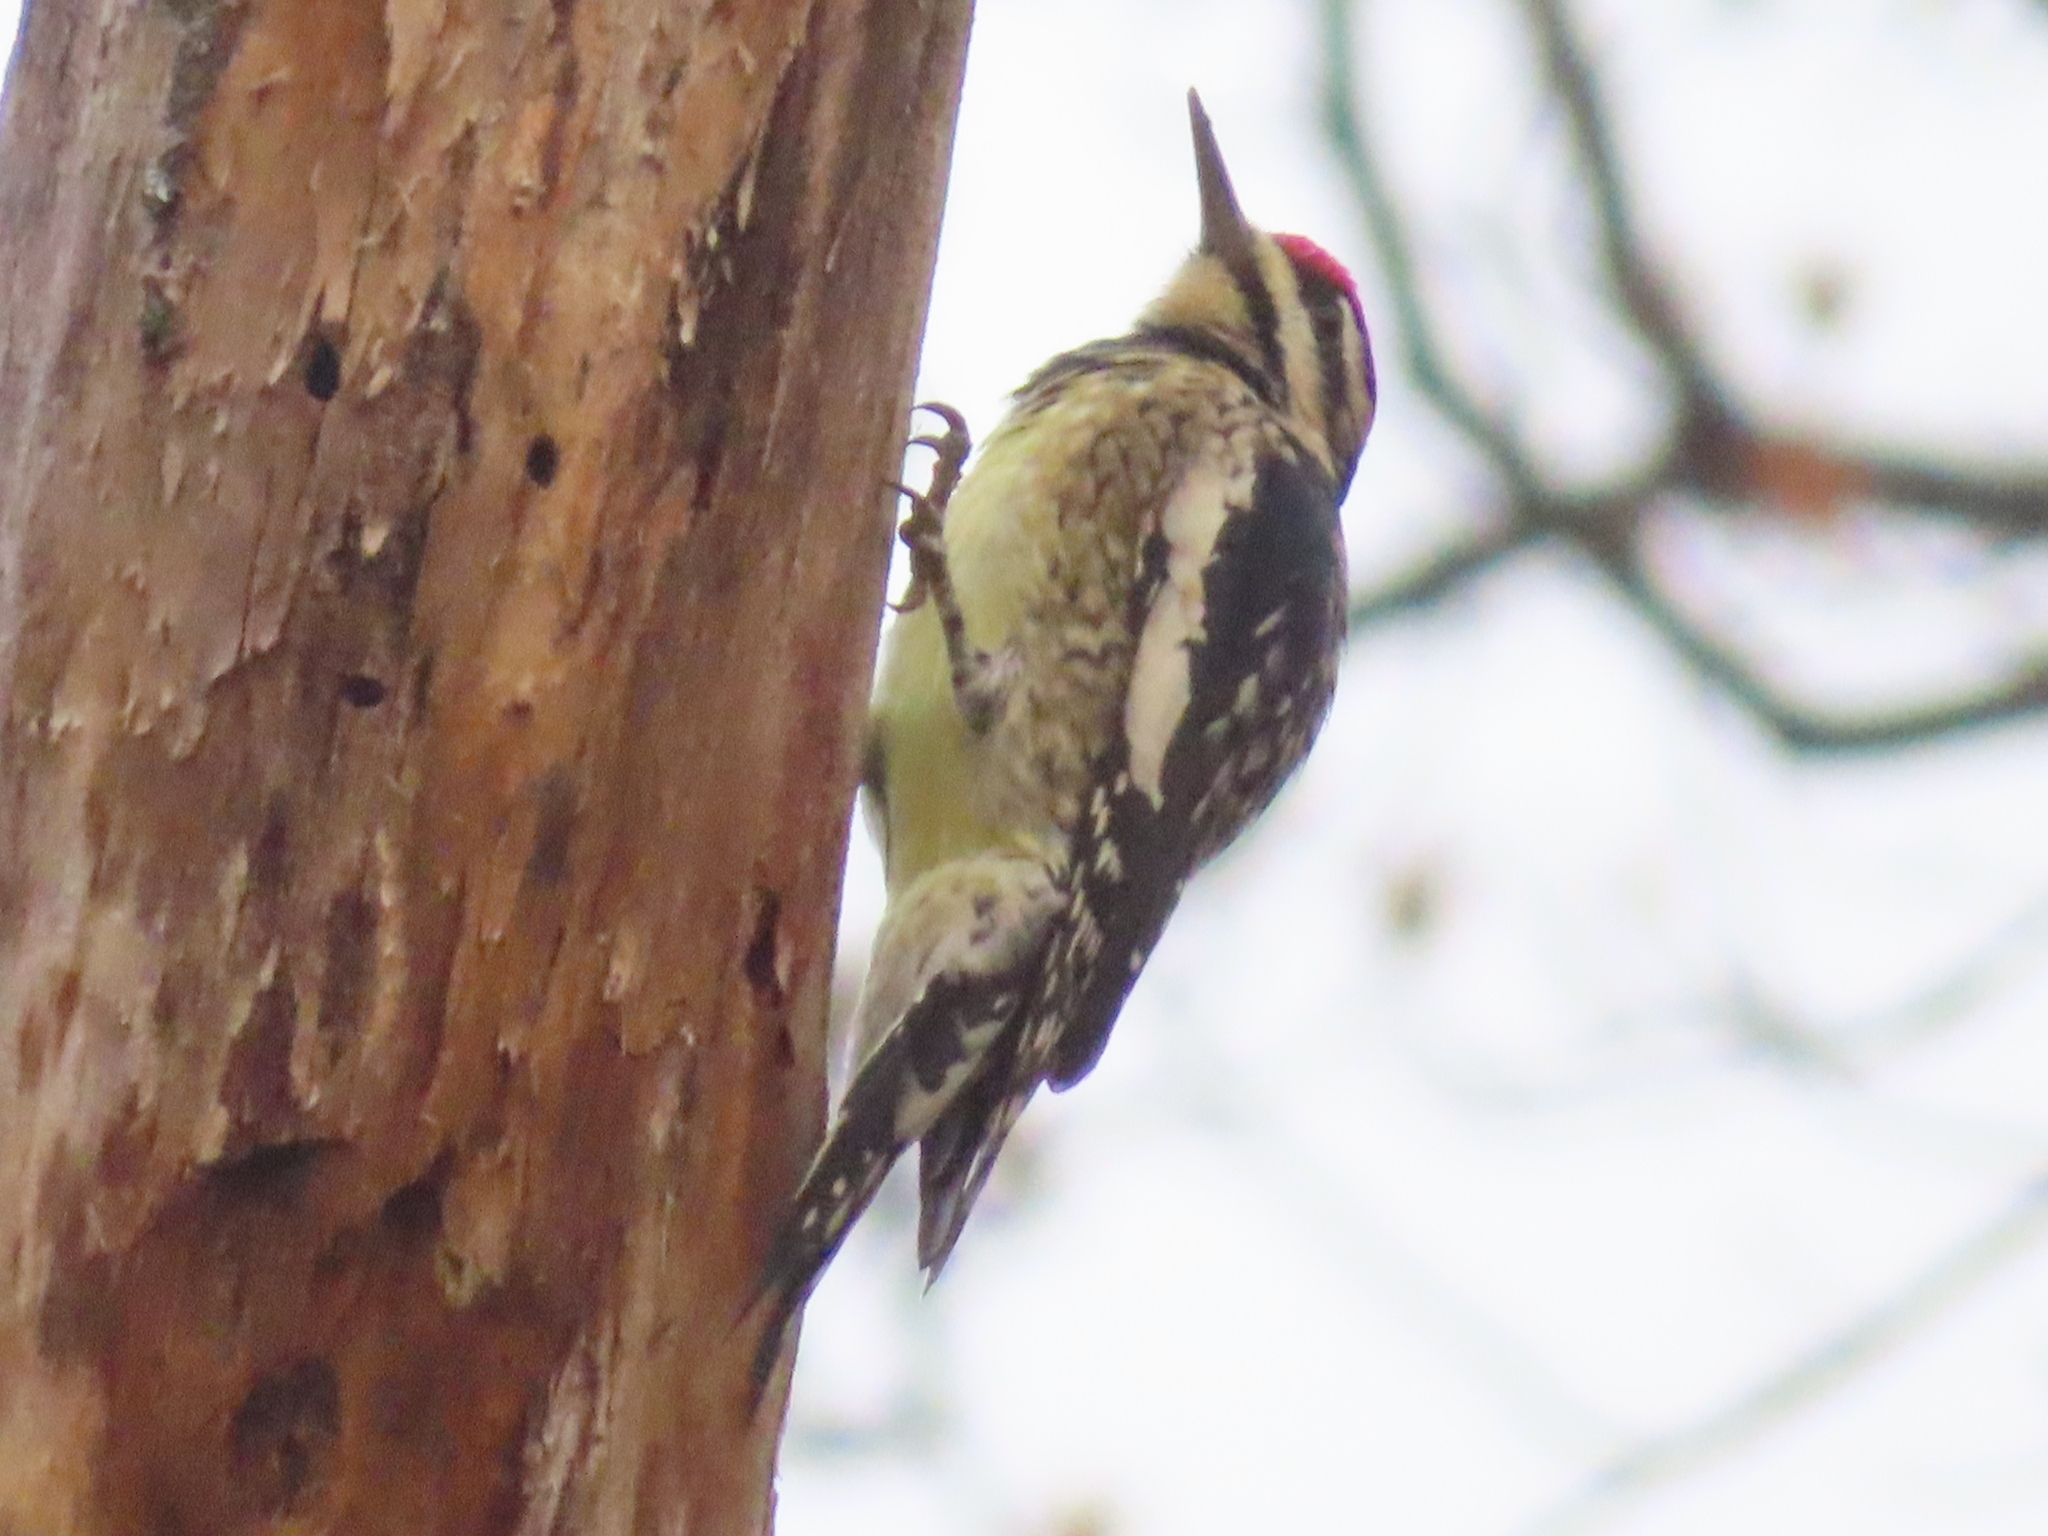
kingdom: Animalia
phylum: Chordata
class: Aves
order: Piciformes
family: Picidae
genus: Sphyrapicus
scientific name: Sphyrapicus varius
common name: Yellow-bellied sapsucker
